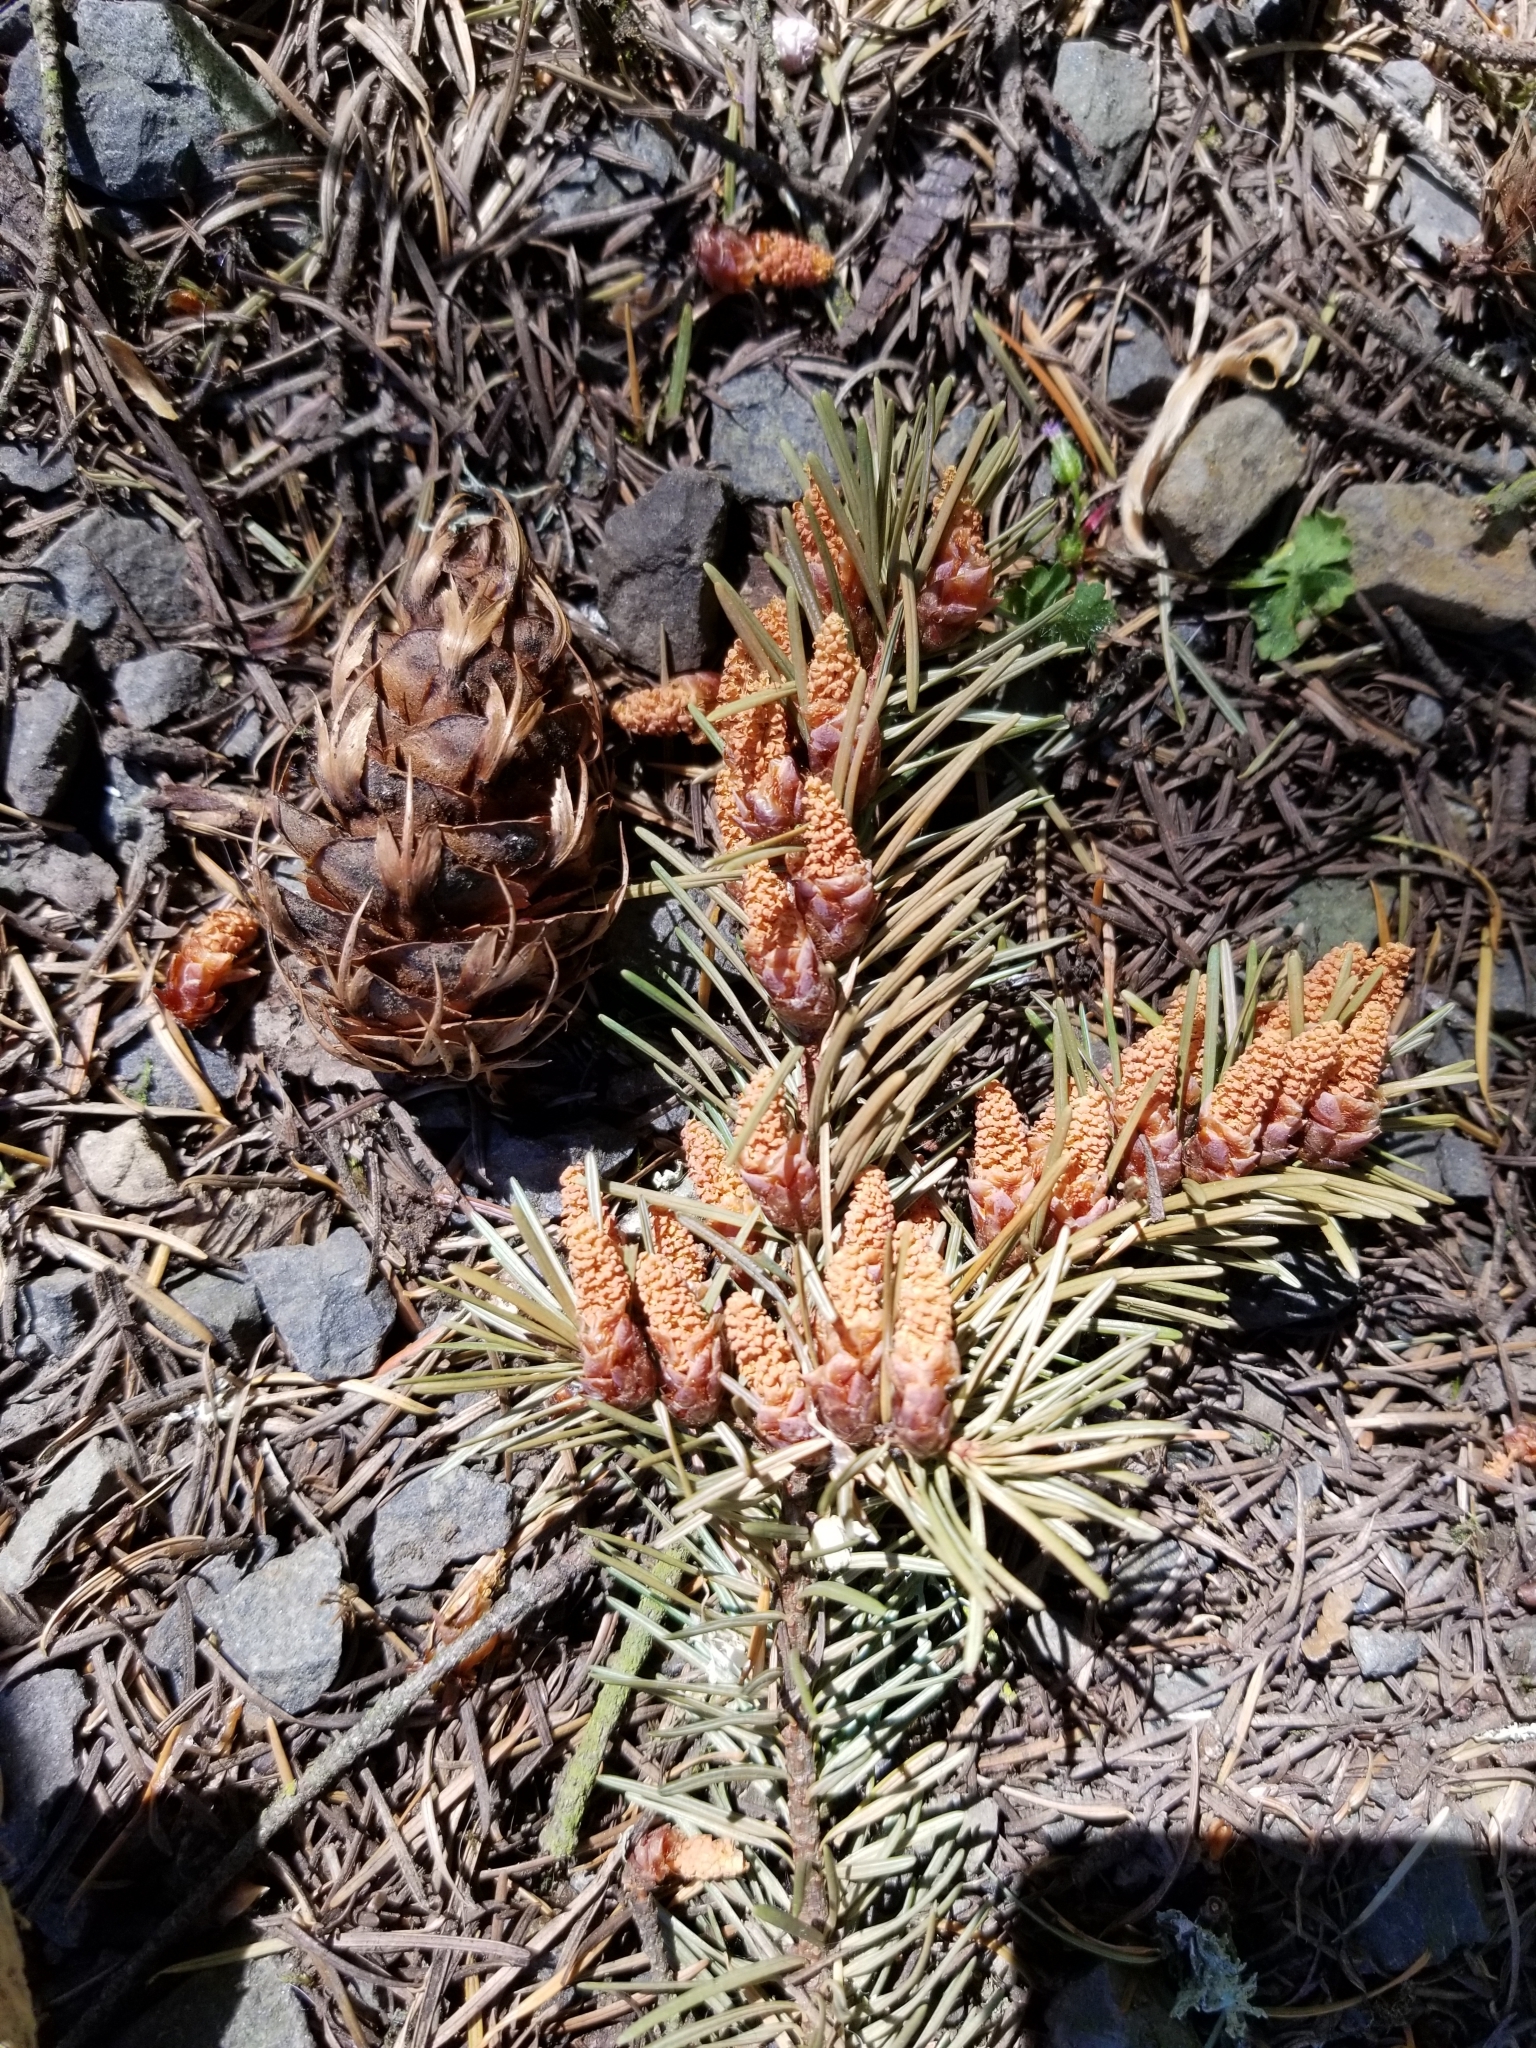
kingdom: Plantae
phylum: Tracheophyta
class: Pinopsida
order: Pinales
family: Pinaceae
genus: Pseudotsuga
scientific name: Pseudotsuga menziesii
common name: Douglas fir
